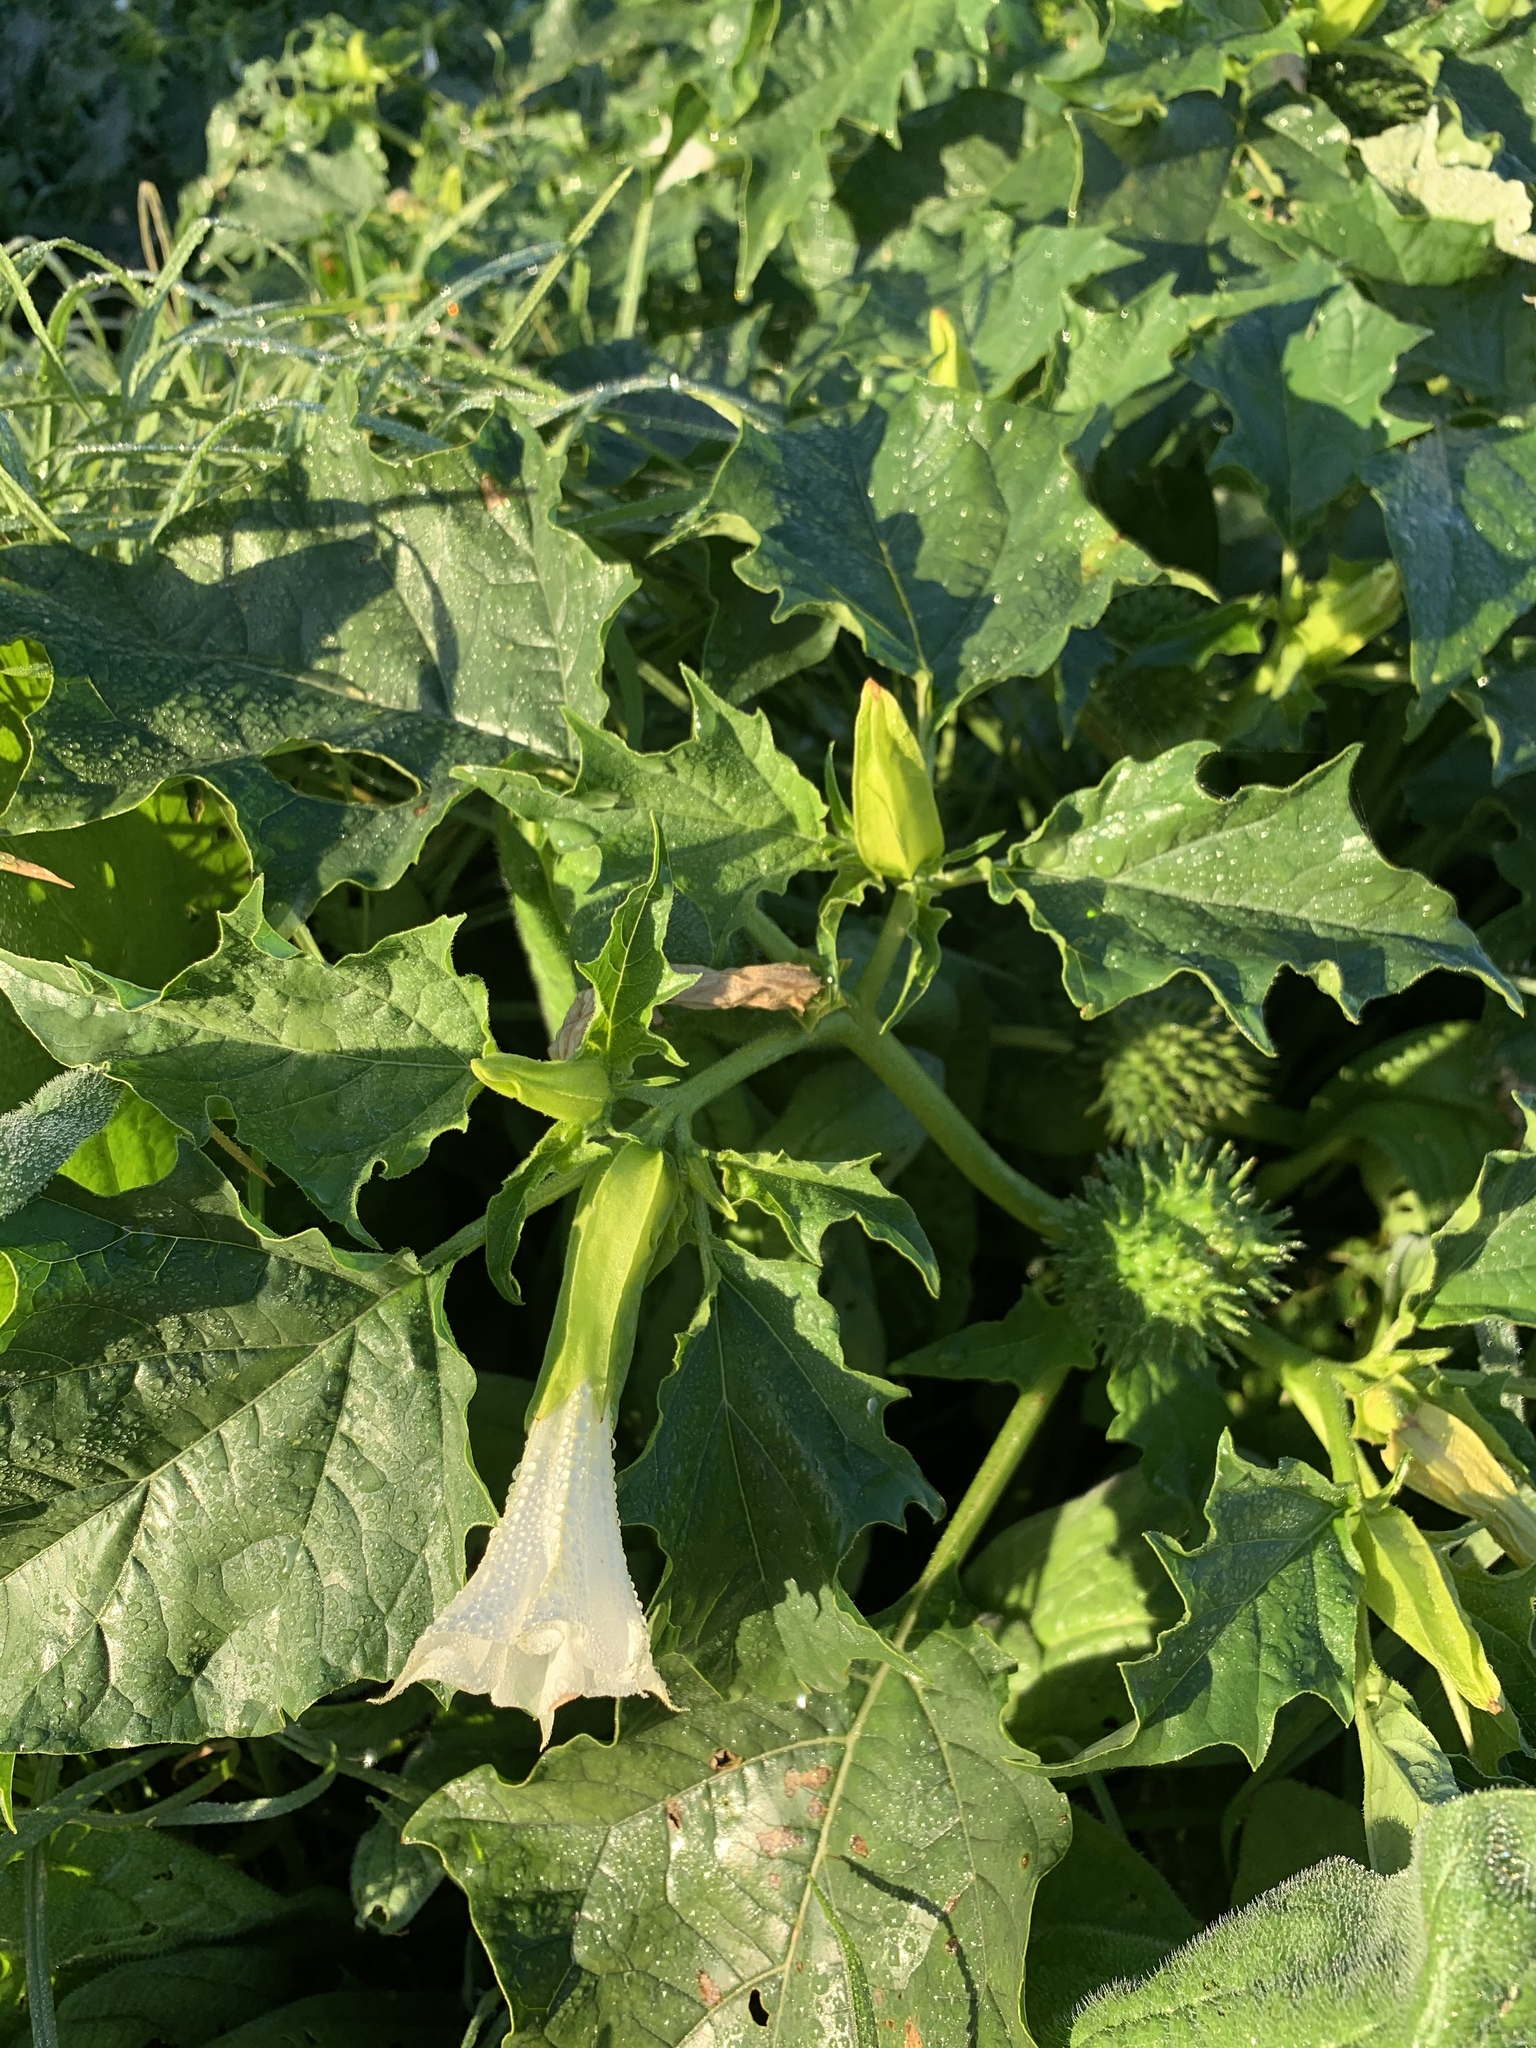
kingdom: Plantae
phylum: Tracheophyta
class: Magnoliopsida
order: Solanales
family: Solanaceae
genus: Datura
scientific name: Datura stramonium
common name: Thorn-apple
